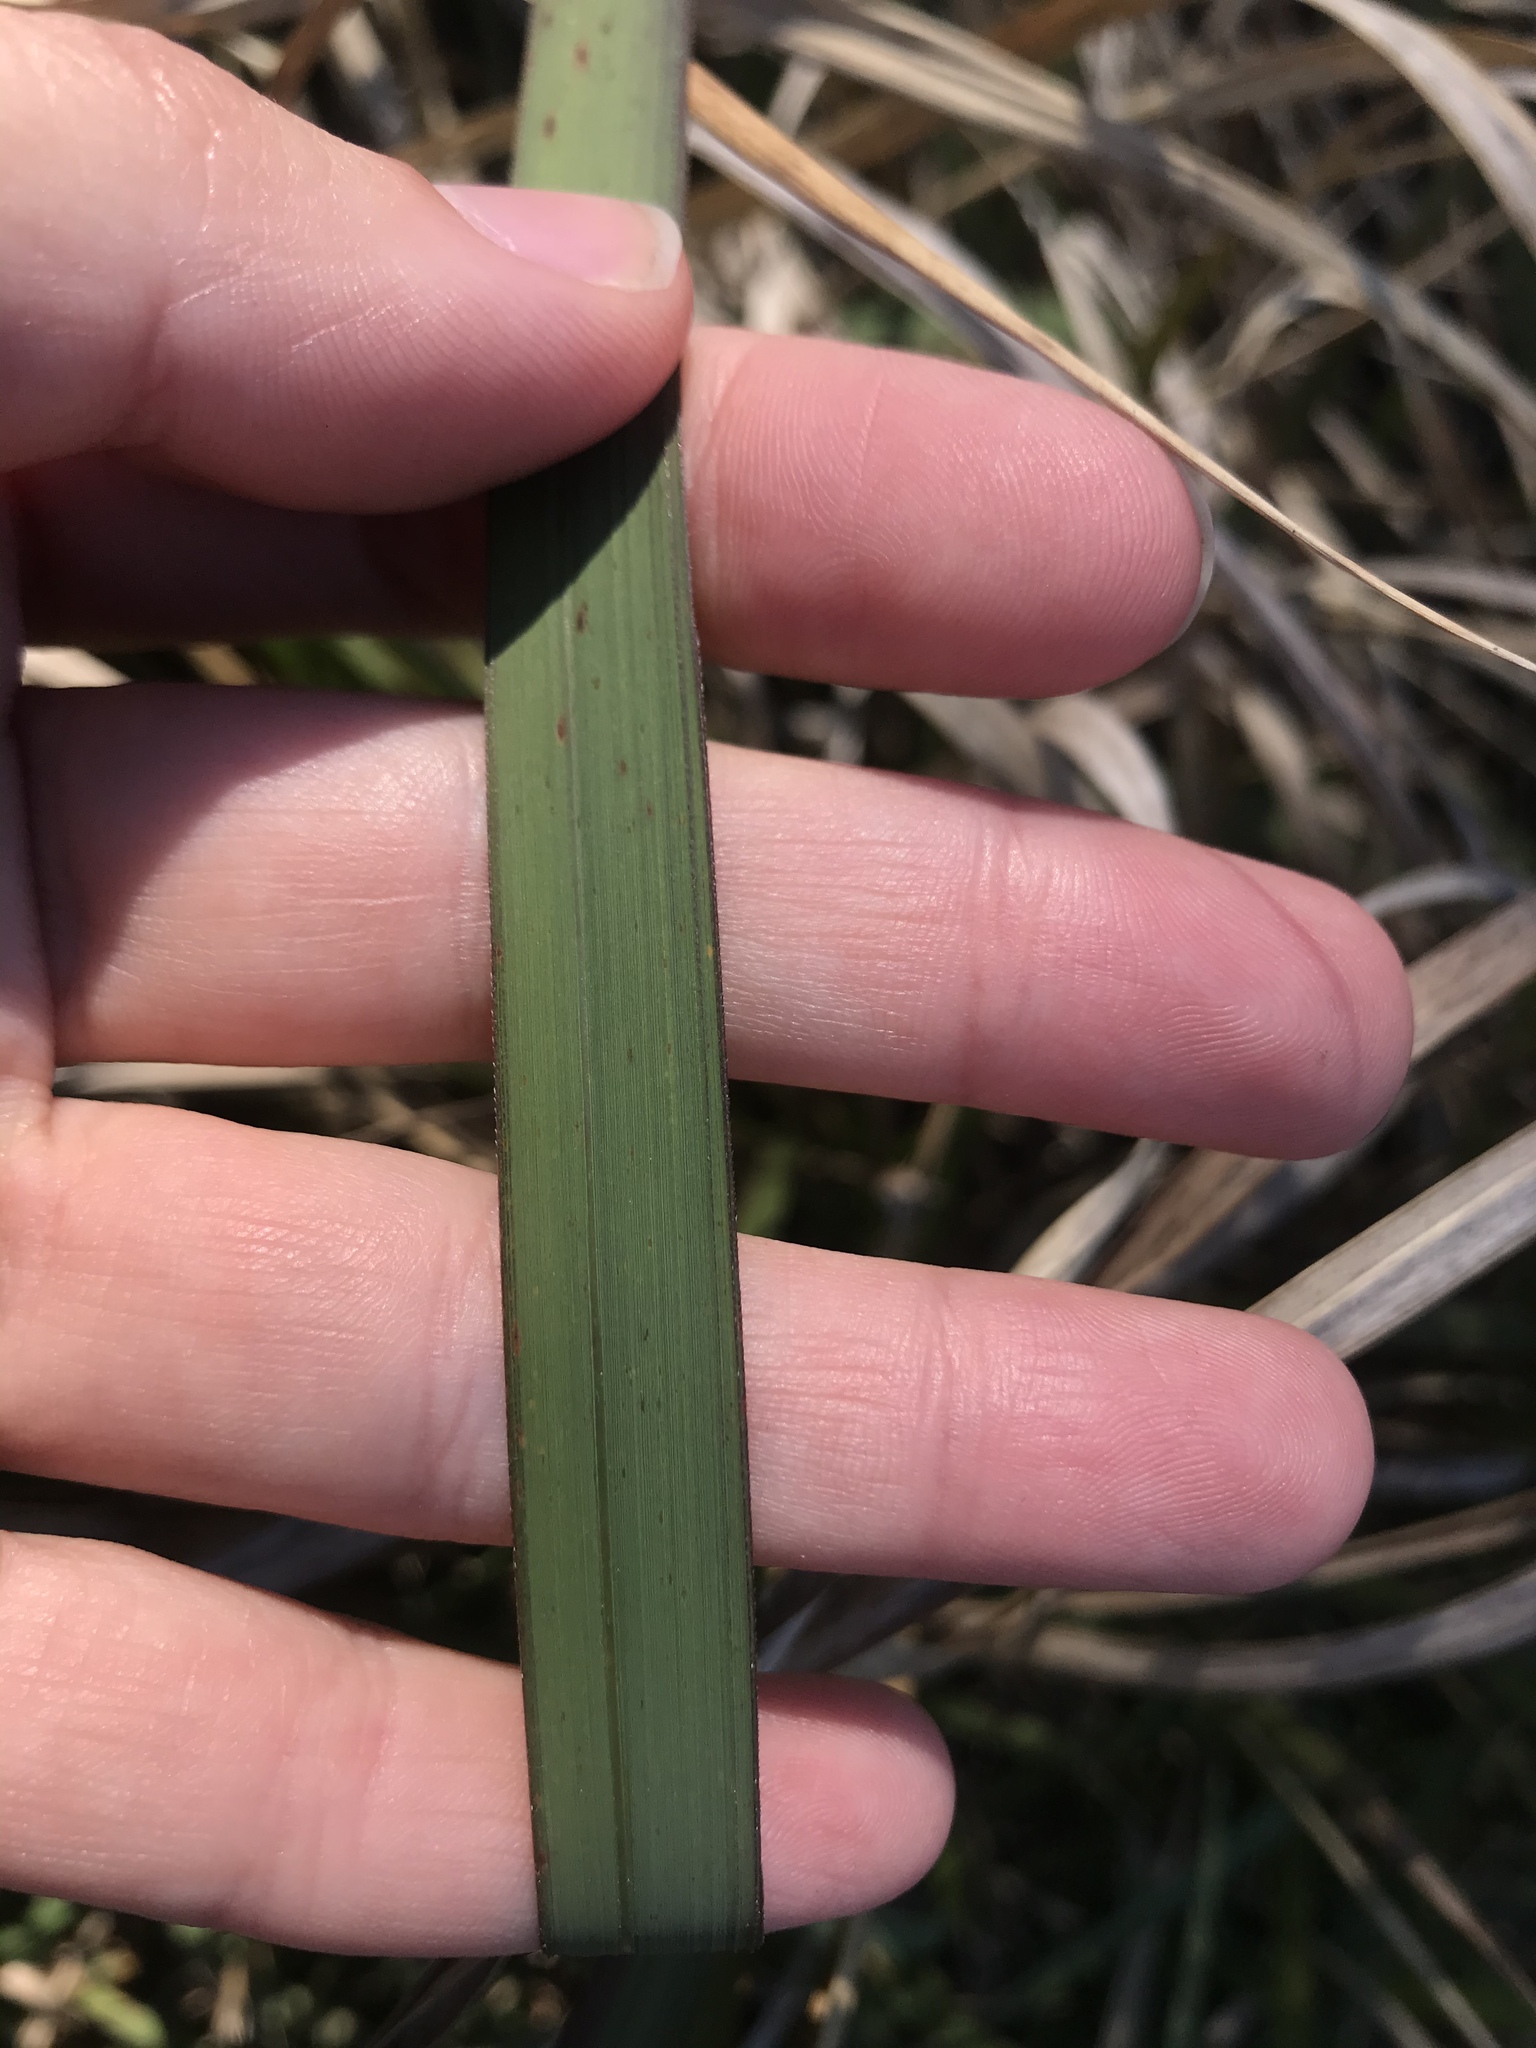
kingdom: Plantae
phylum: Tracheophyta
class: Liliopsida
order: Poales
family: Poaceae
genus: Imperata
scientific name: Imperata cylindrica
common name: Cogongrass
